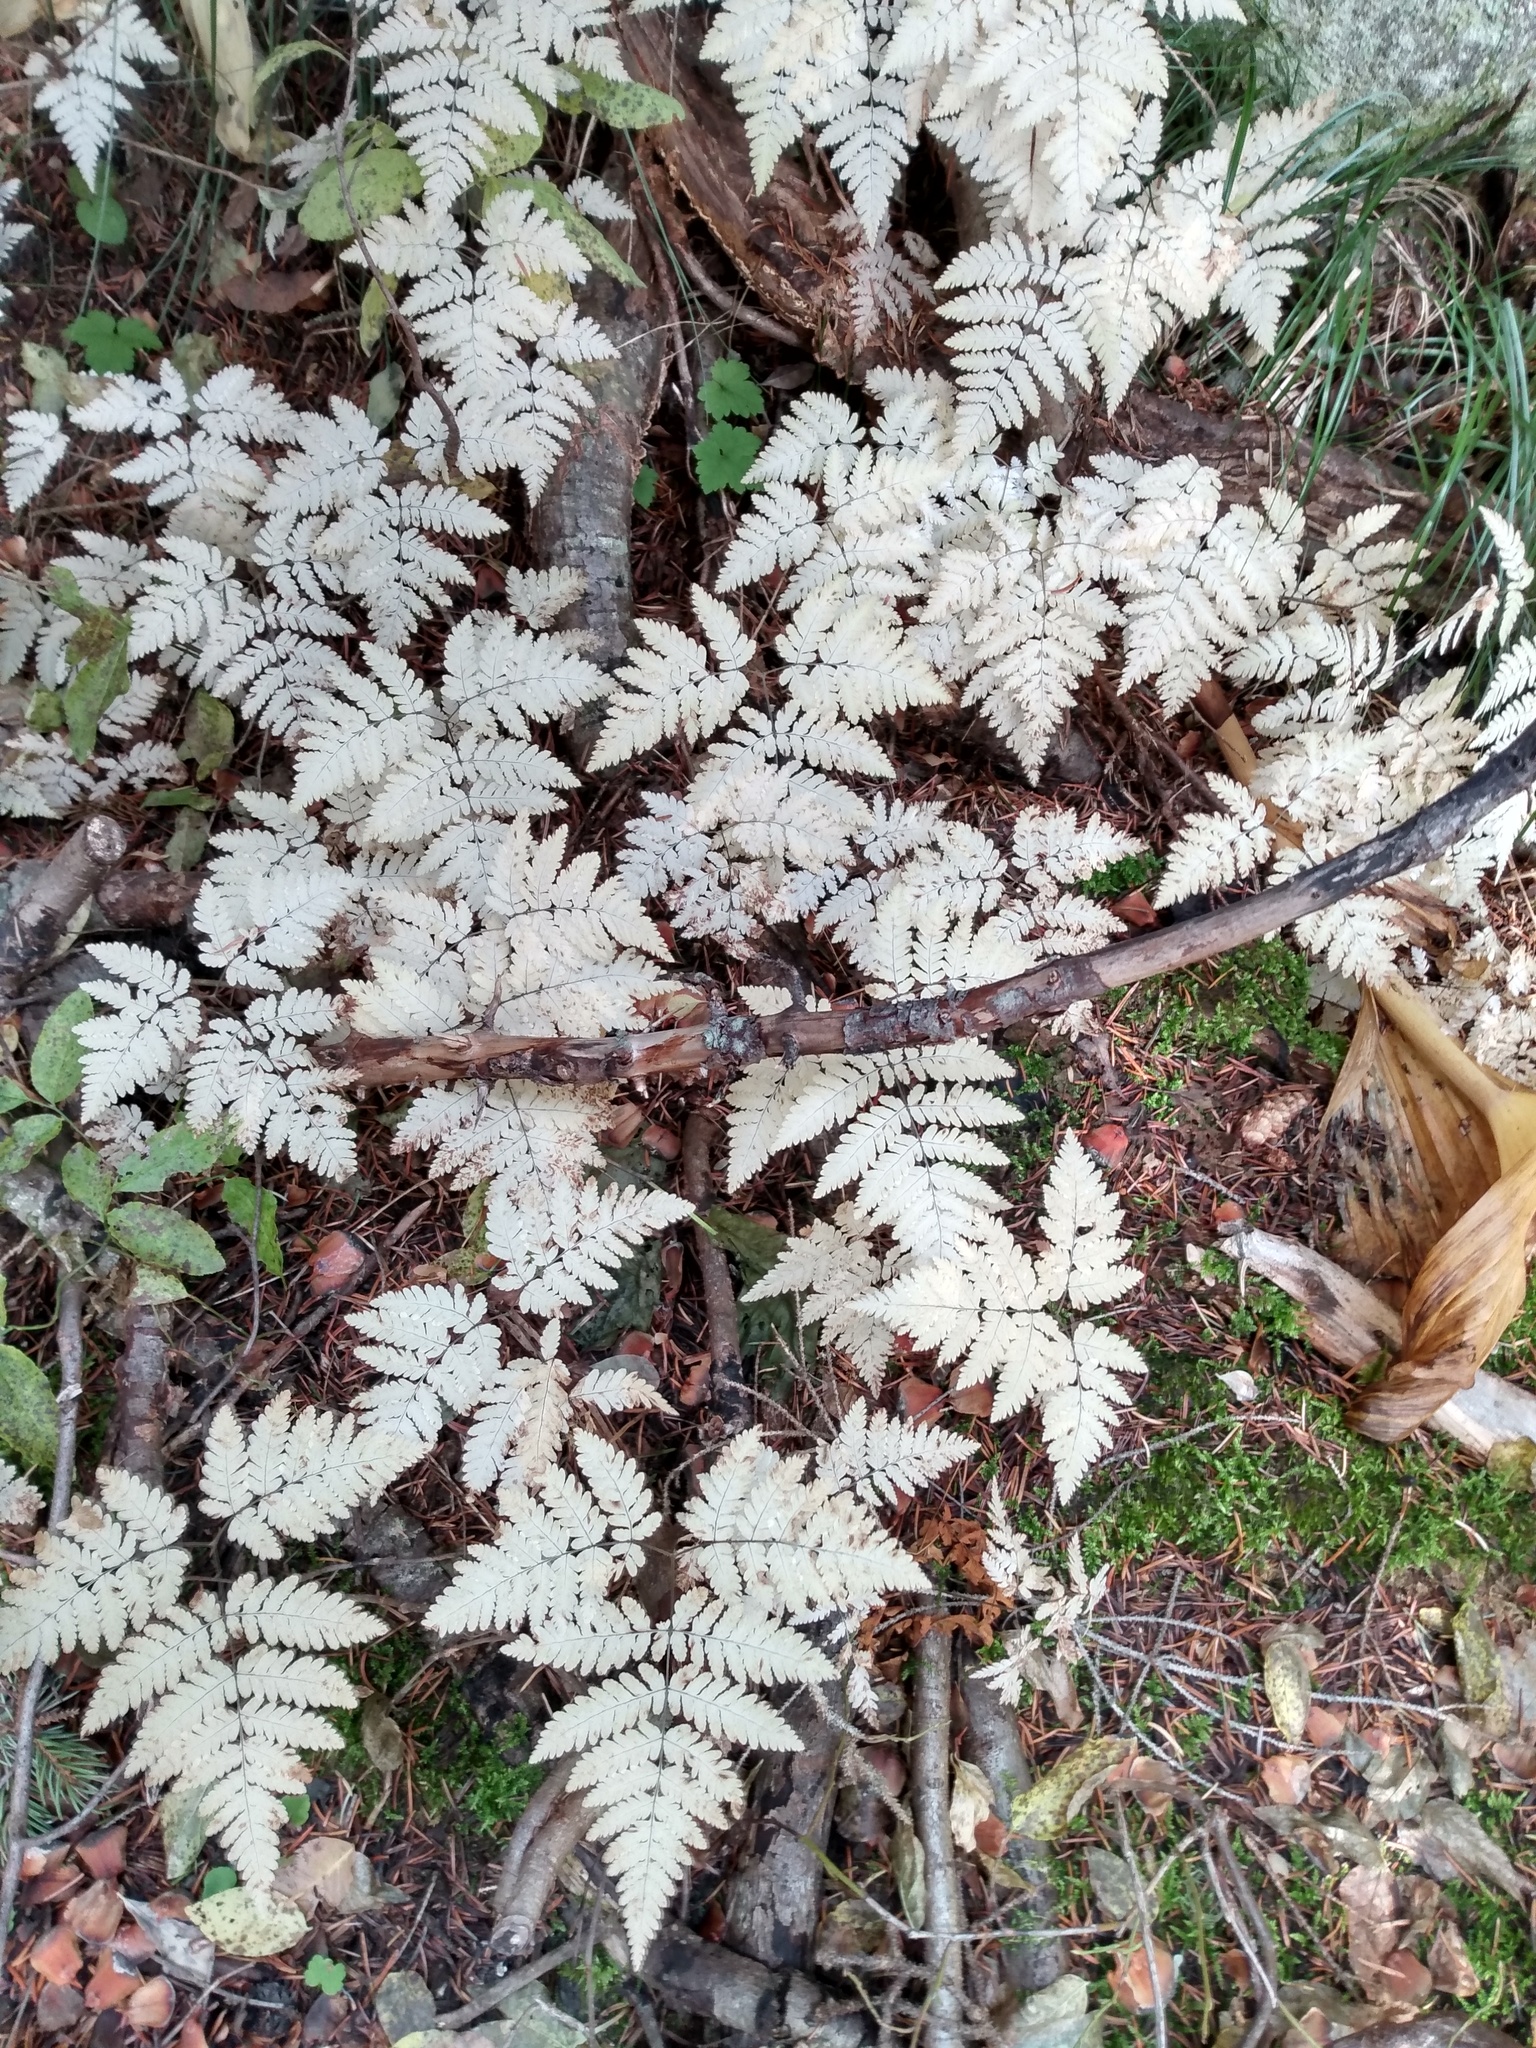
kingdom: Plantae
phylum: Tracheophyta
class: Polypodiopsida
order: Polypodiales
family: Cystopteridaceae
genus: Gymnocarpium
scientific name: Gymnocarpium disjunctum
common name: Western oak fern
